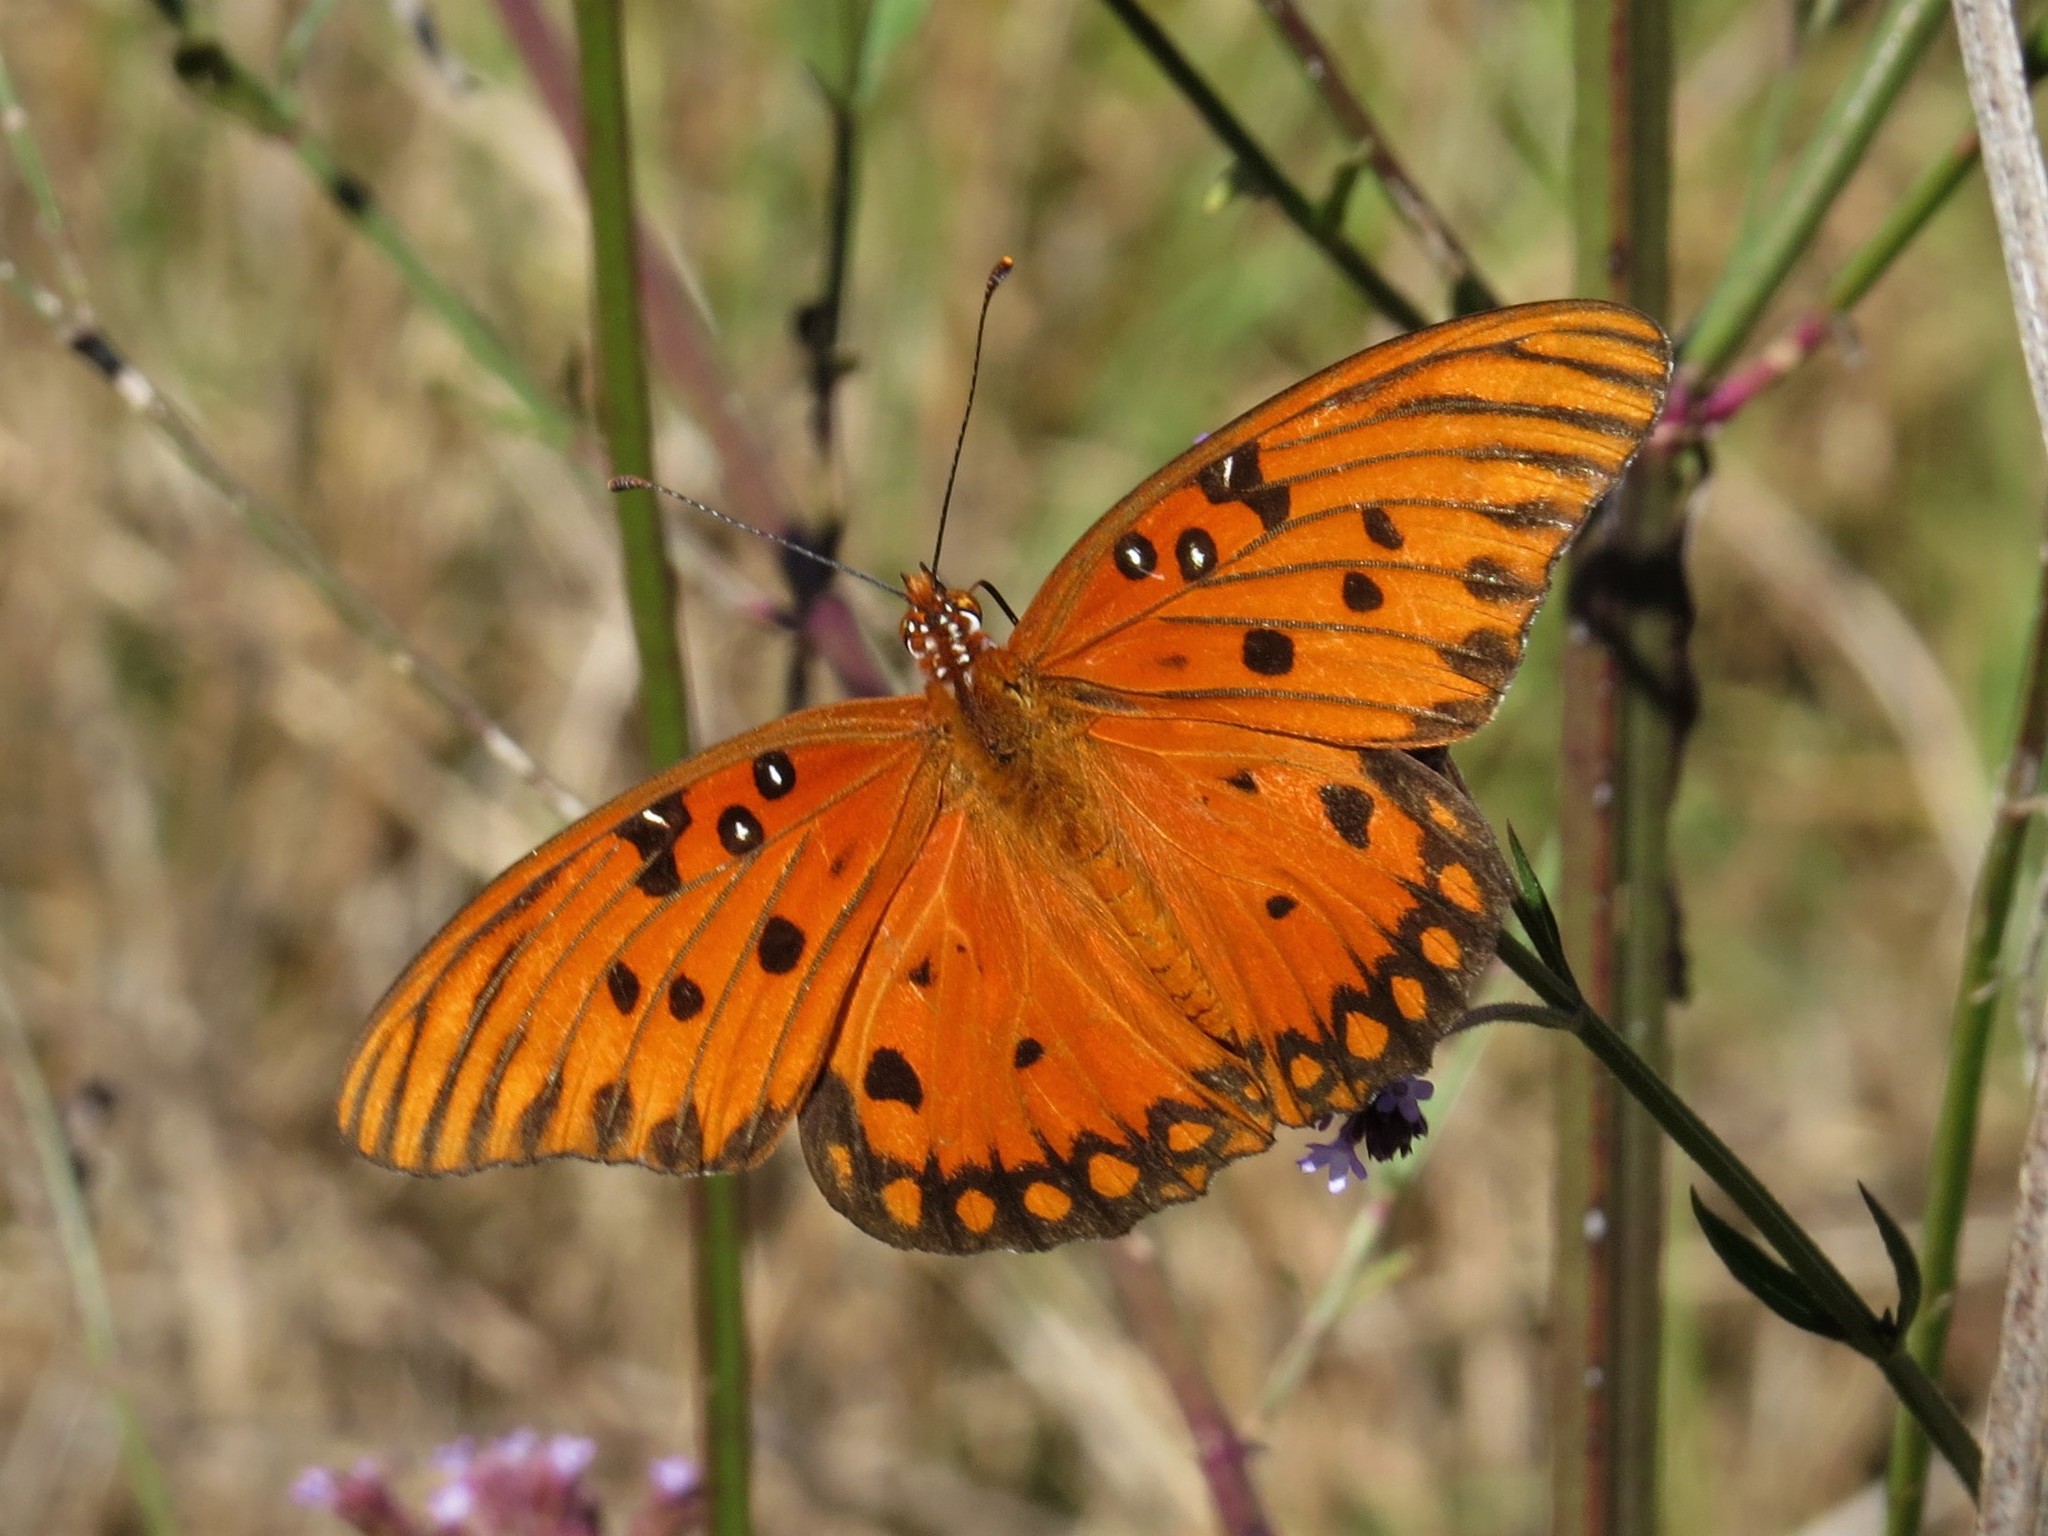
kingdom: Animalia
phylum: Arthropoda
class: Insecta
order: Lepidoptera
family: Nymphalidae
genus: Dione
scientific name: Dione vanillae
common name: Gulf fritillary
